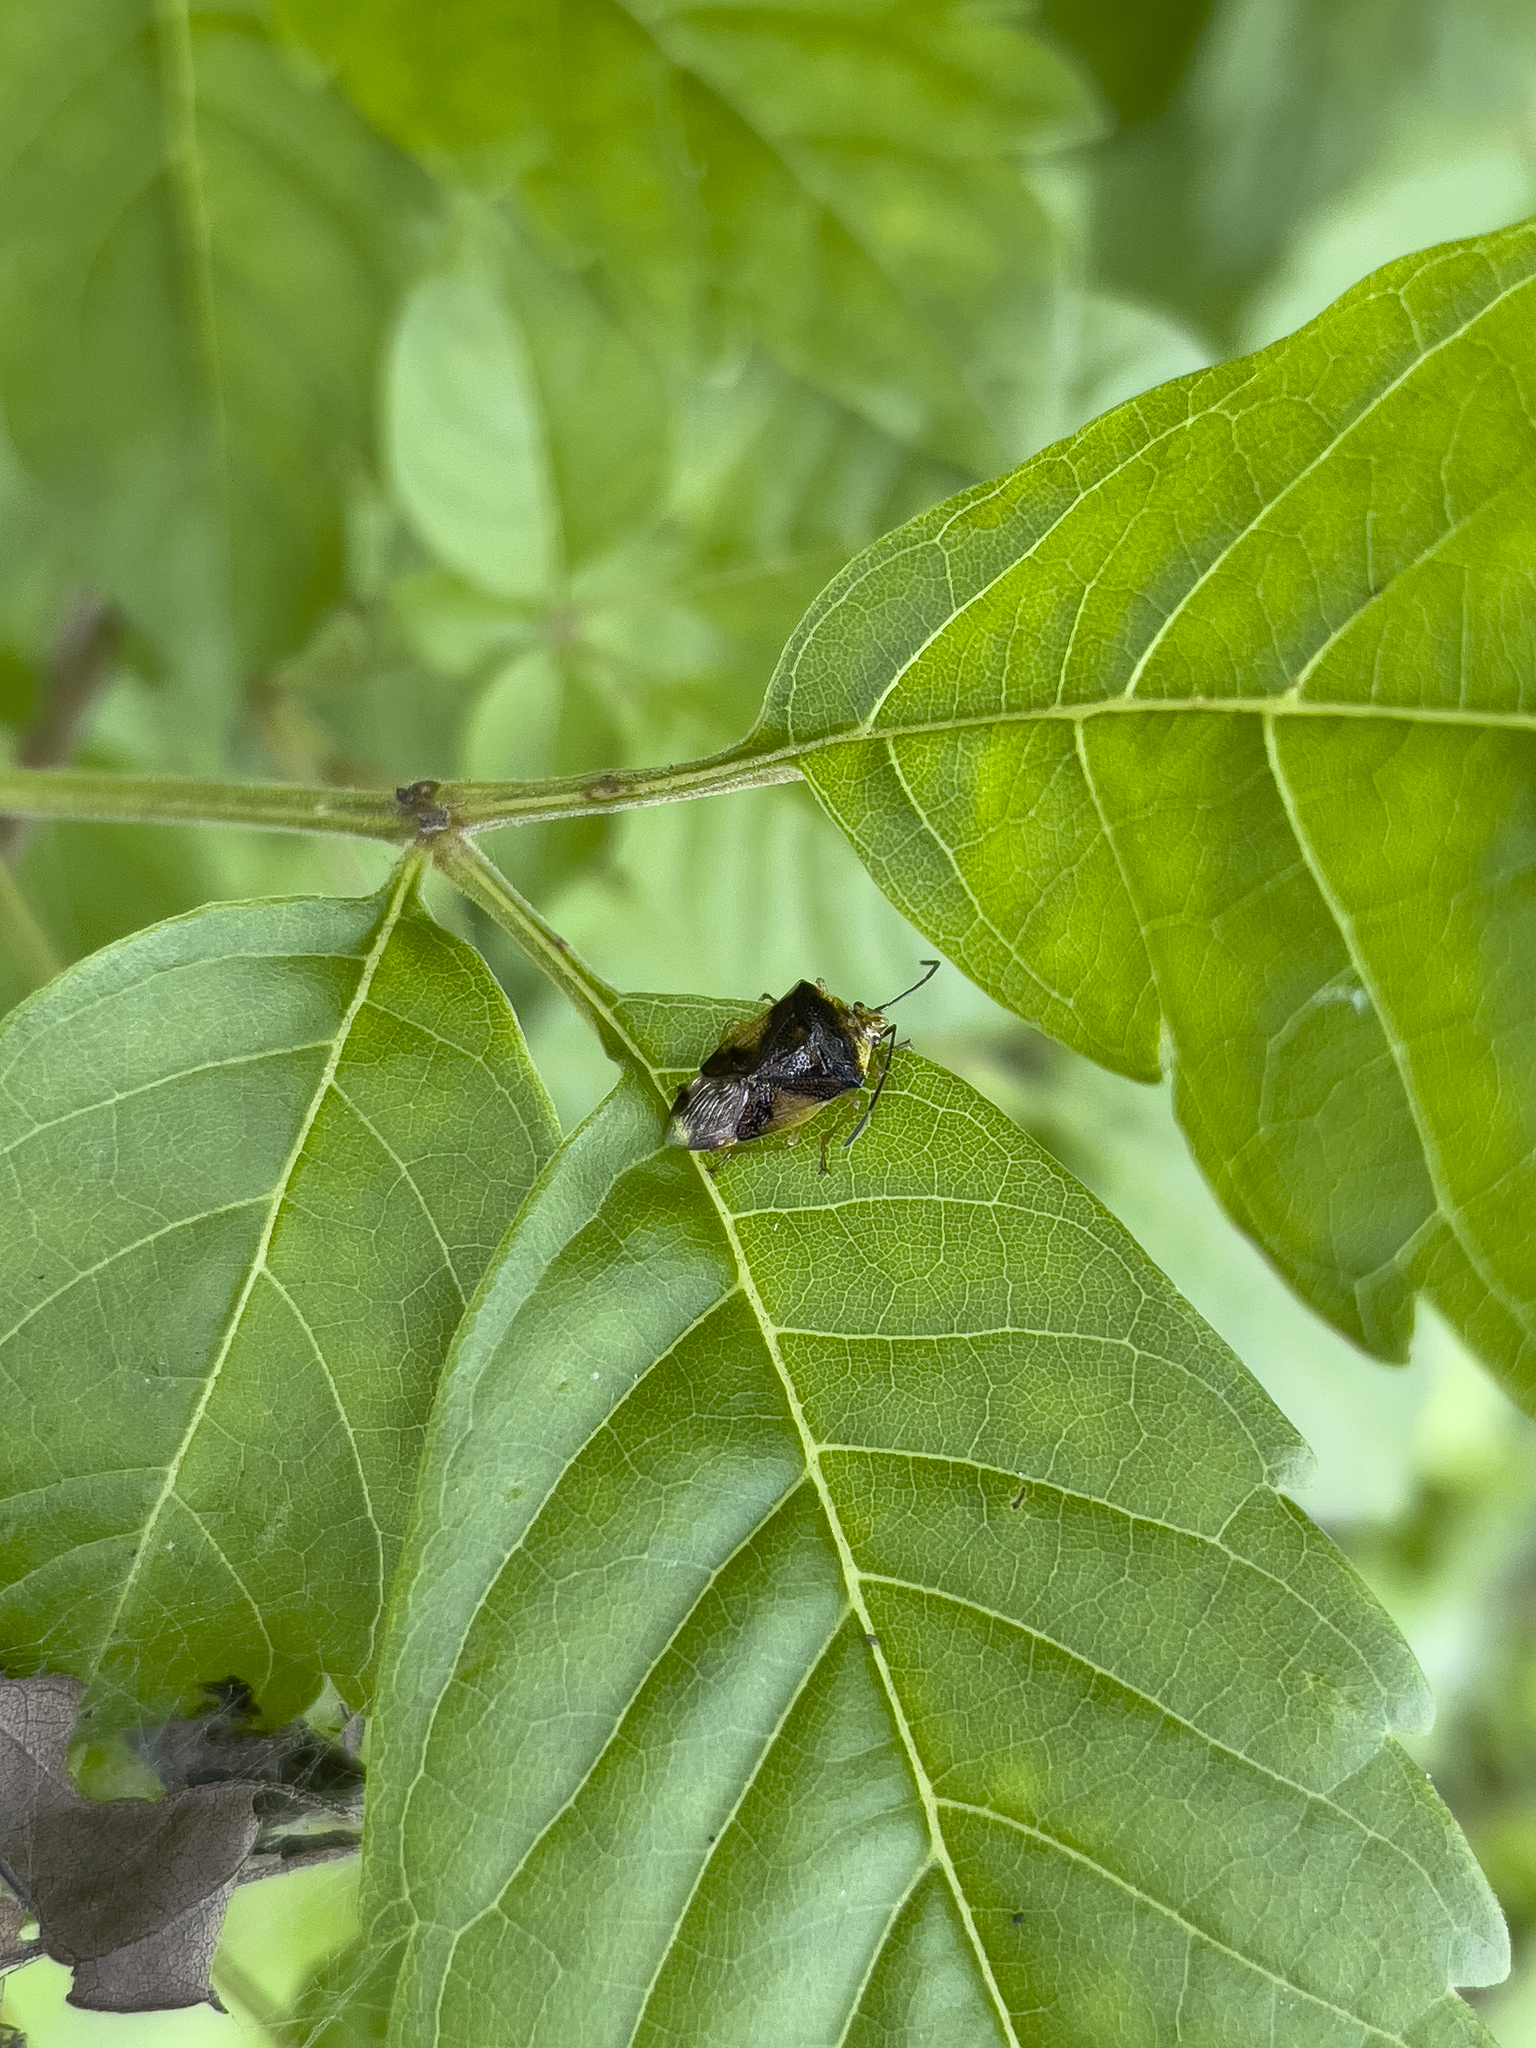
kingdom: Animalia
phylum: Arthropoda
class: Insecta
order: Hemiptera
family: Acanthosomatidae
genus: Elasmostethus
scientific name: Elasmostethus nubilus
